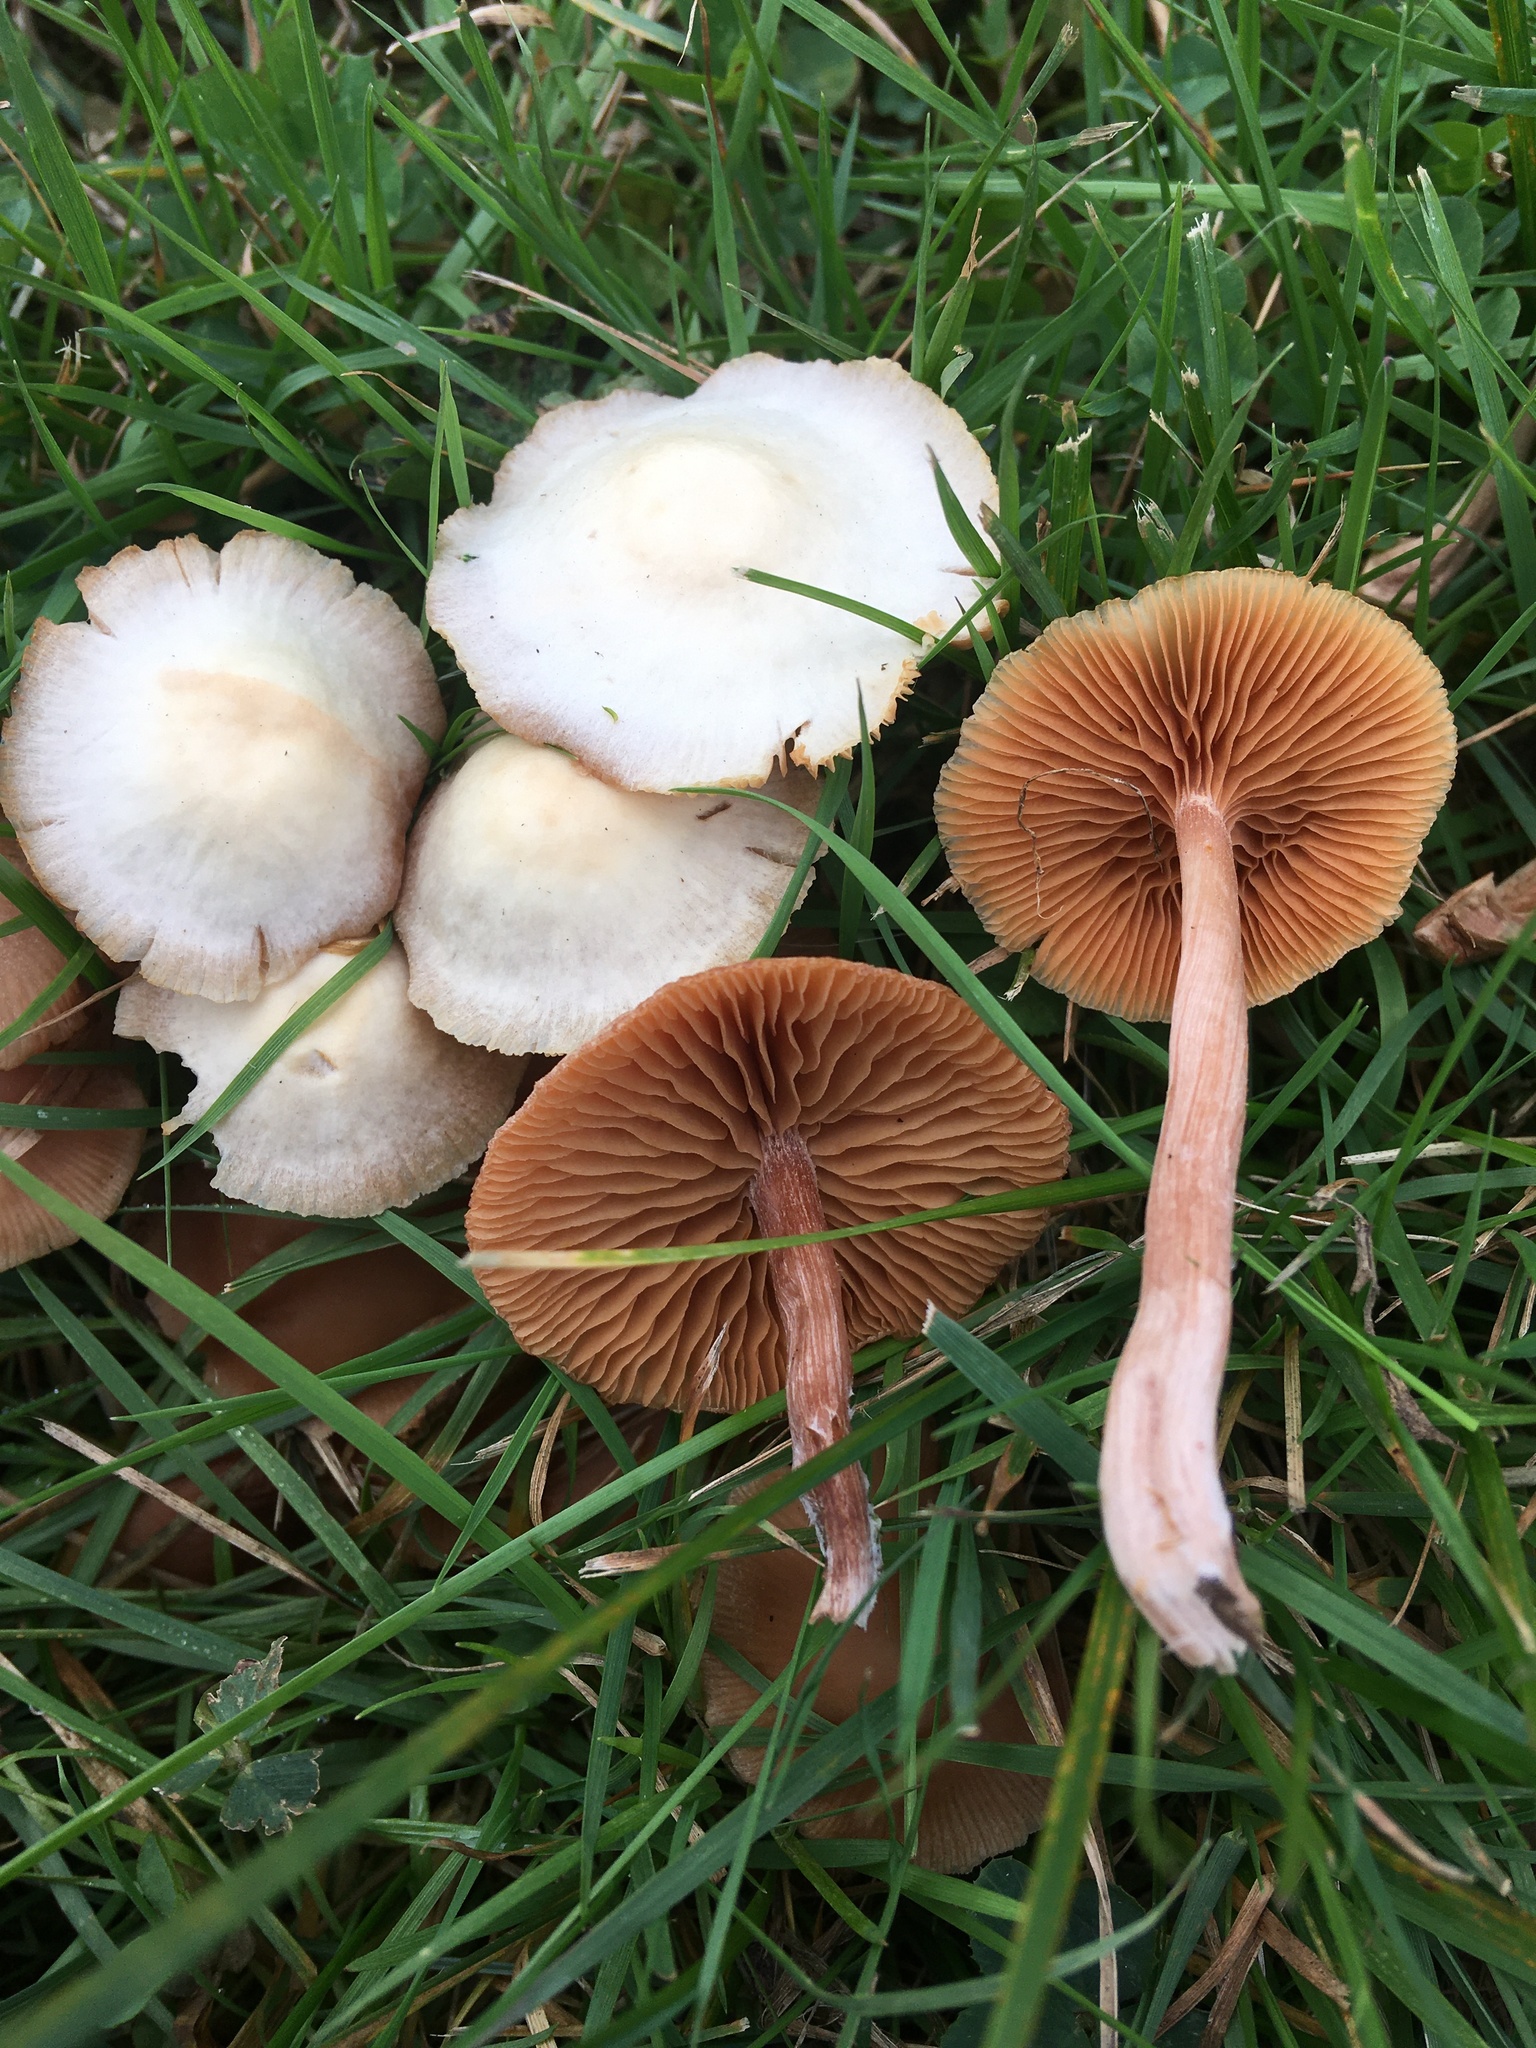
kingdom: Fungi
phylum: Basidiomycota
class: Agaricomycetes
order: Agaricales
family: Tubariaceae
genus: Tubaria
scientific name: Tubaria furfuracea
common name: Scurfy twiglet
